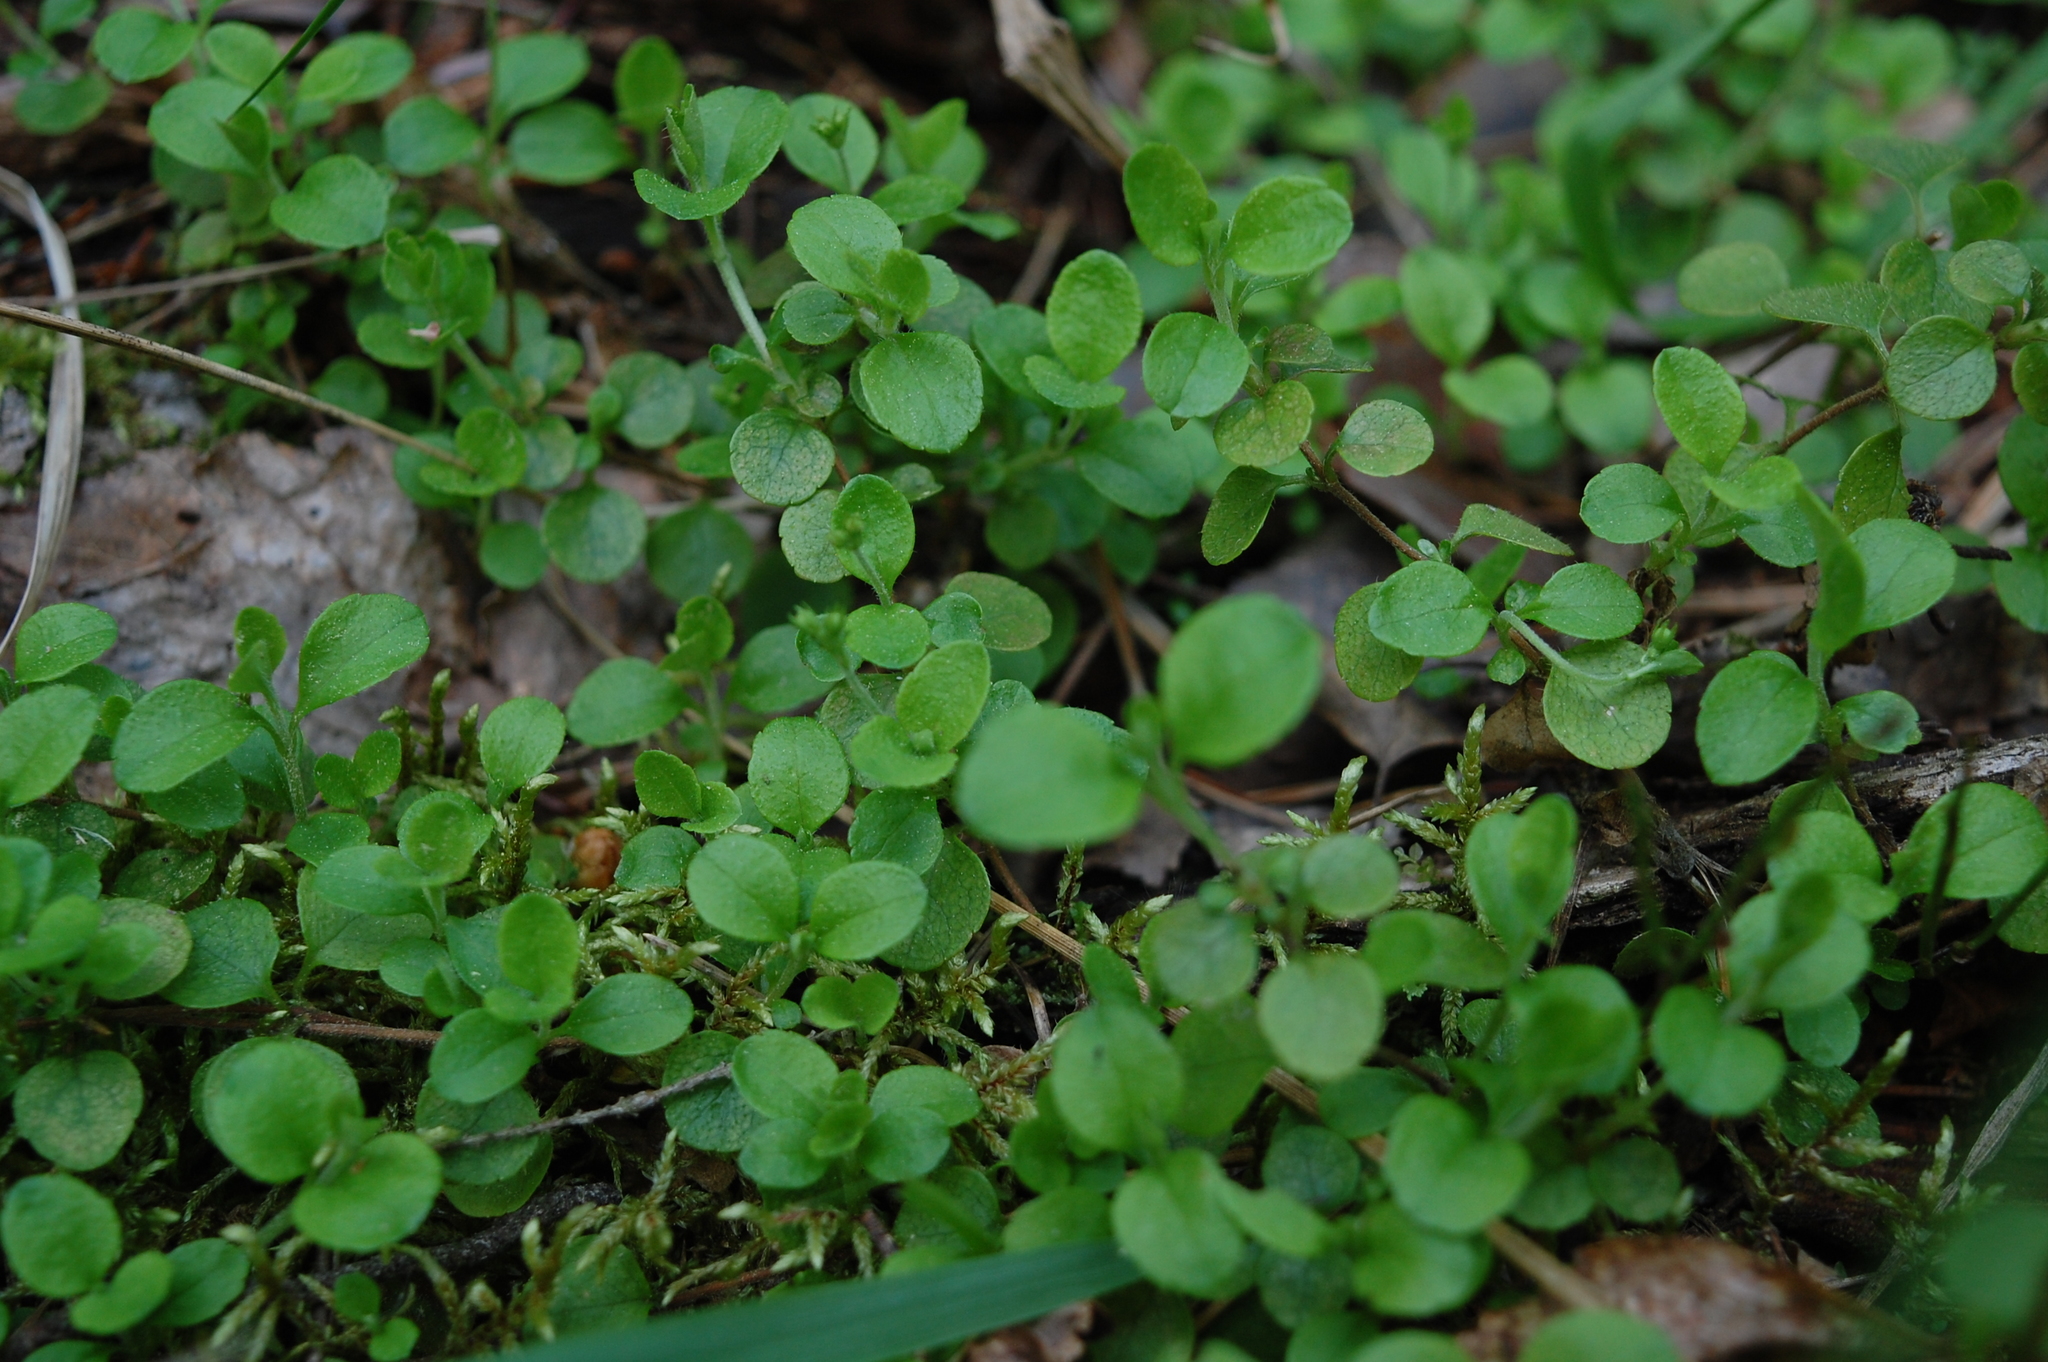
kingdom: Plantae
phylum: Tracheophyta
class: Magnoliopsida
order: Dipsacales
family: Caprifoliaceae
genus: Linnaea
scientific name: Linnaea borealis
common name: Twinflower
